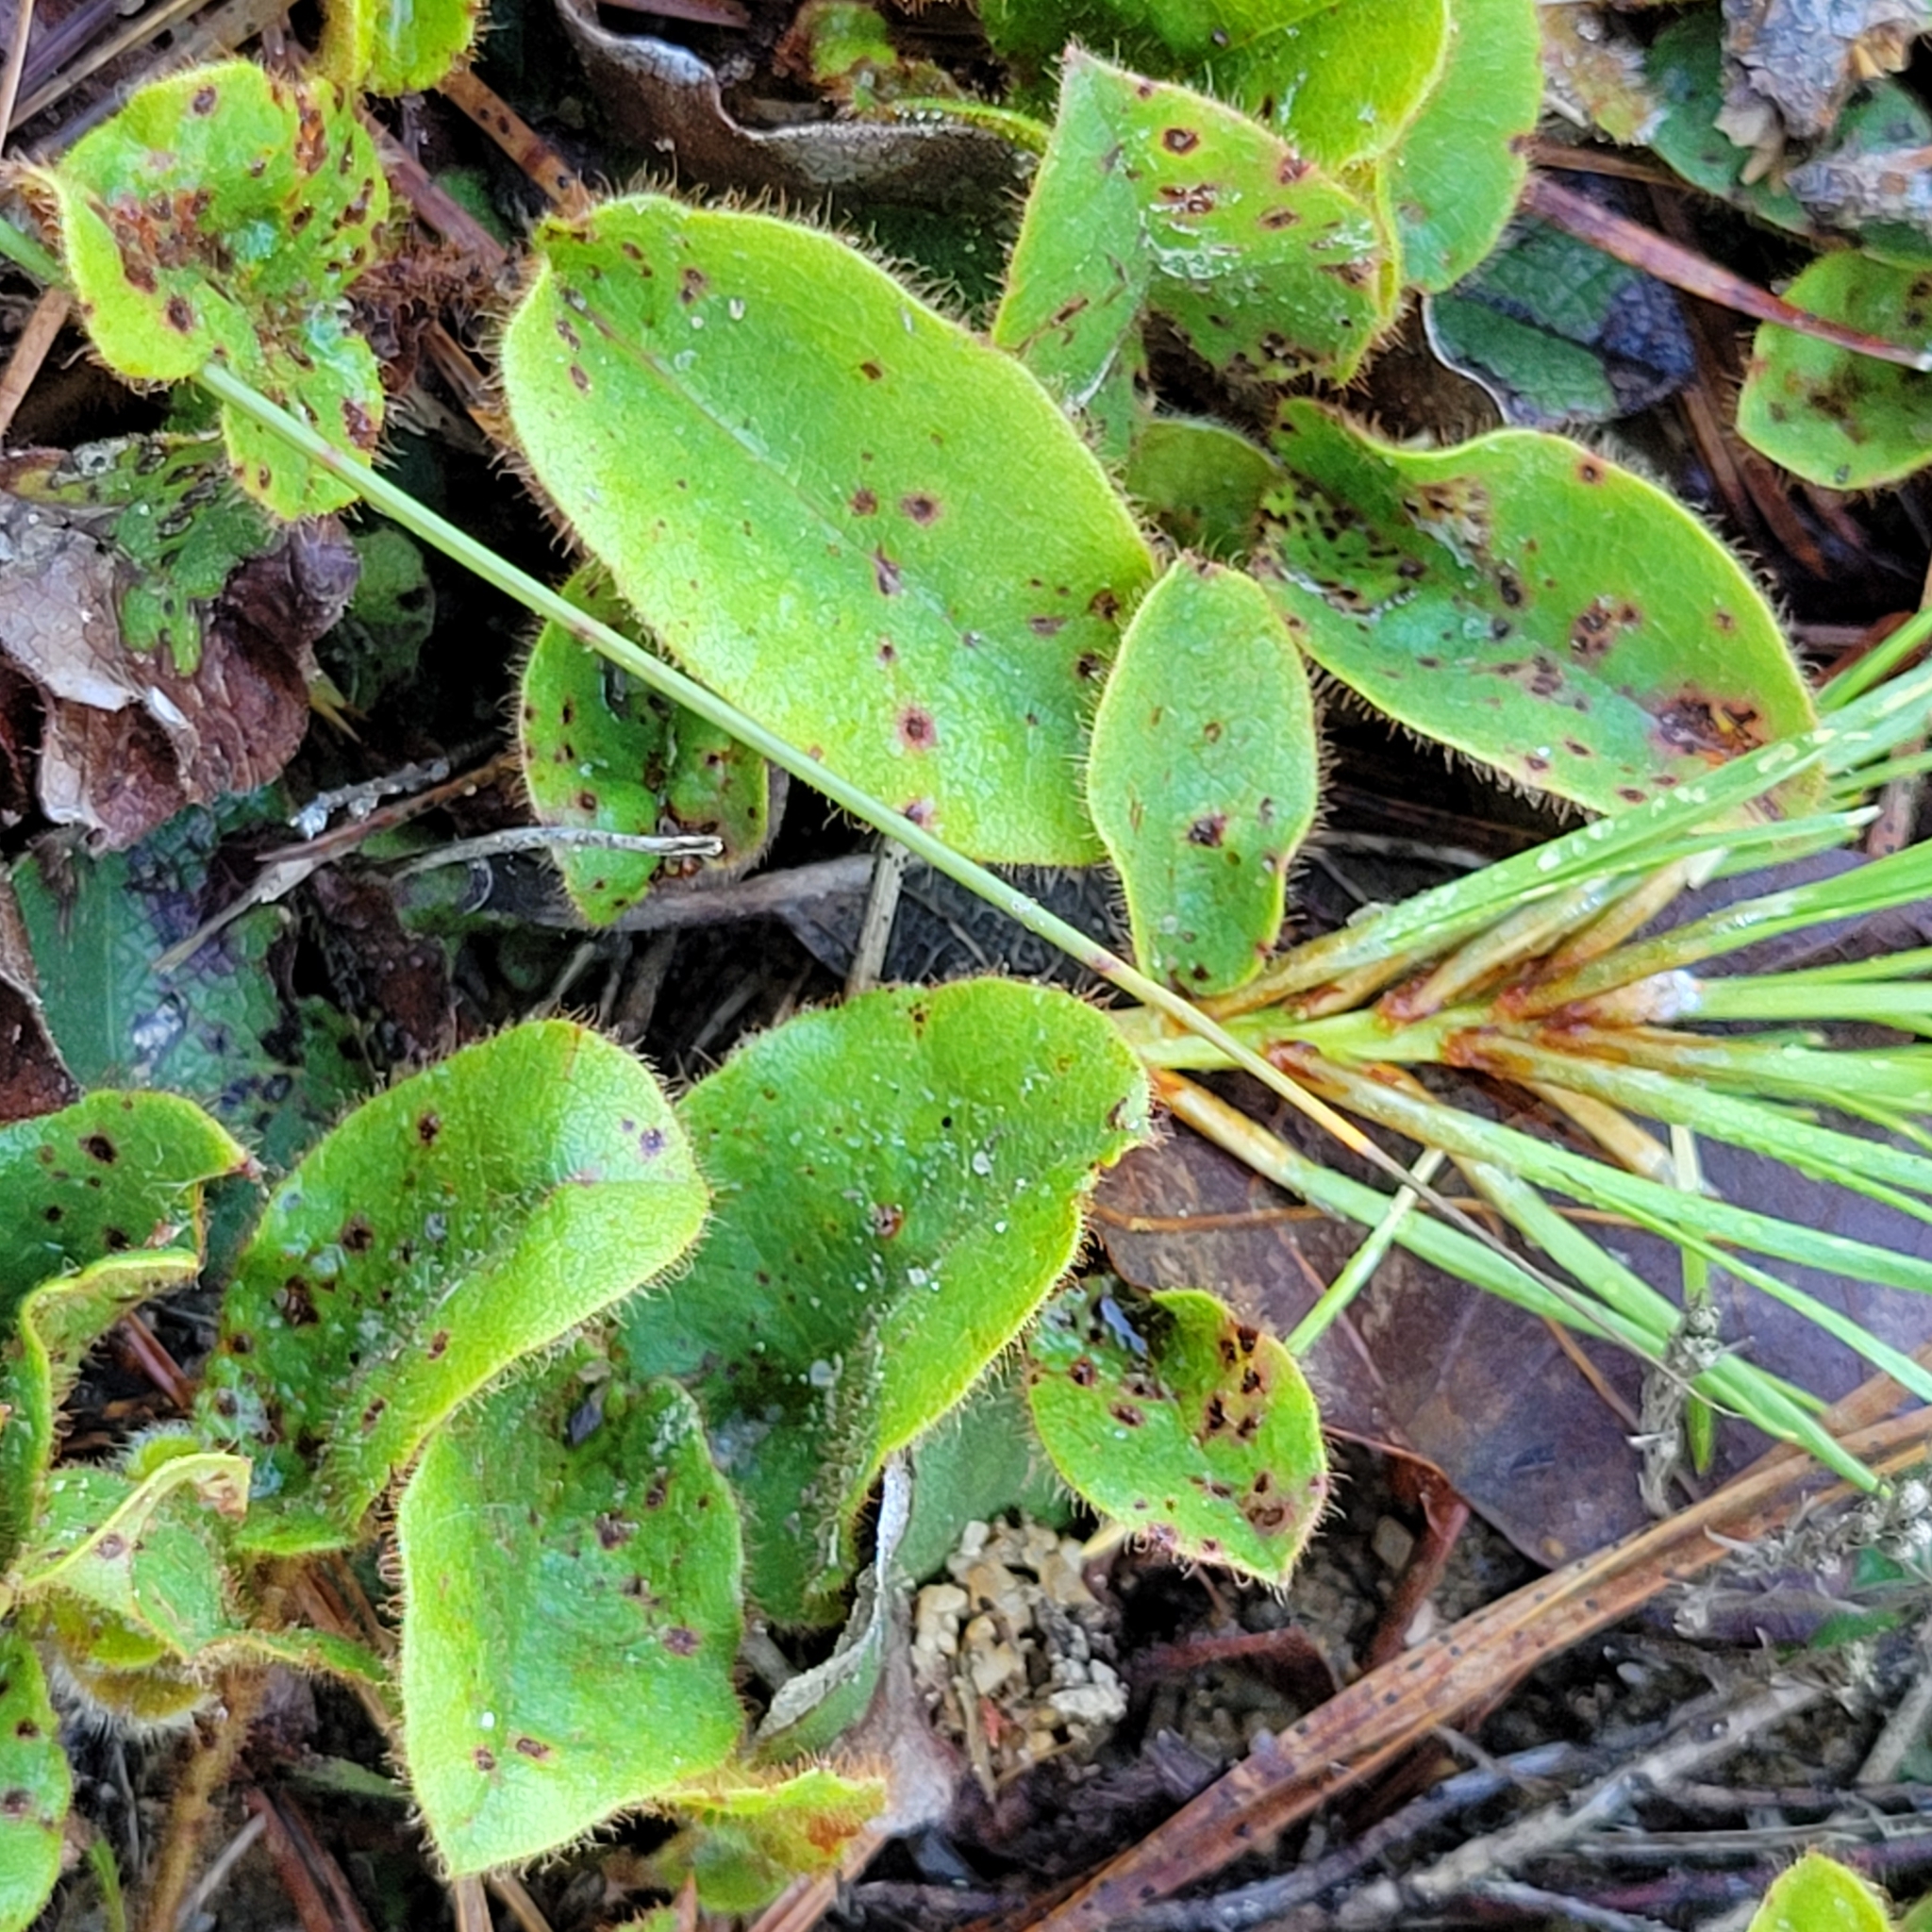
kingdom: Plantae
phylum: Tracheophyta
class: Magnoliopsida
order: Ericales
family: Ericaceae
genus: Epigaea
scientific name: Epigaea repens
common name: Gravelroot
